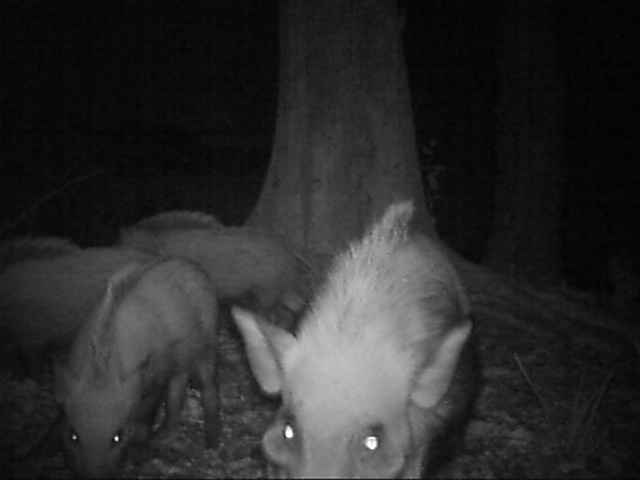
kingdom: Animalia
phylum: Chordata
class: Mammalia
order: Artiodactyla
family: Suidae
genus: Potamochoerus
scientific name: Potamochoerus larvatus
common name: Bushpig
